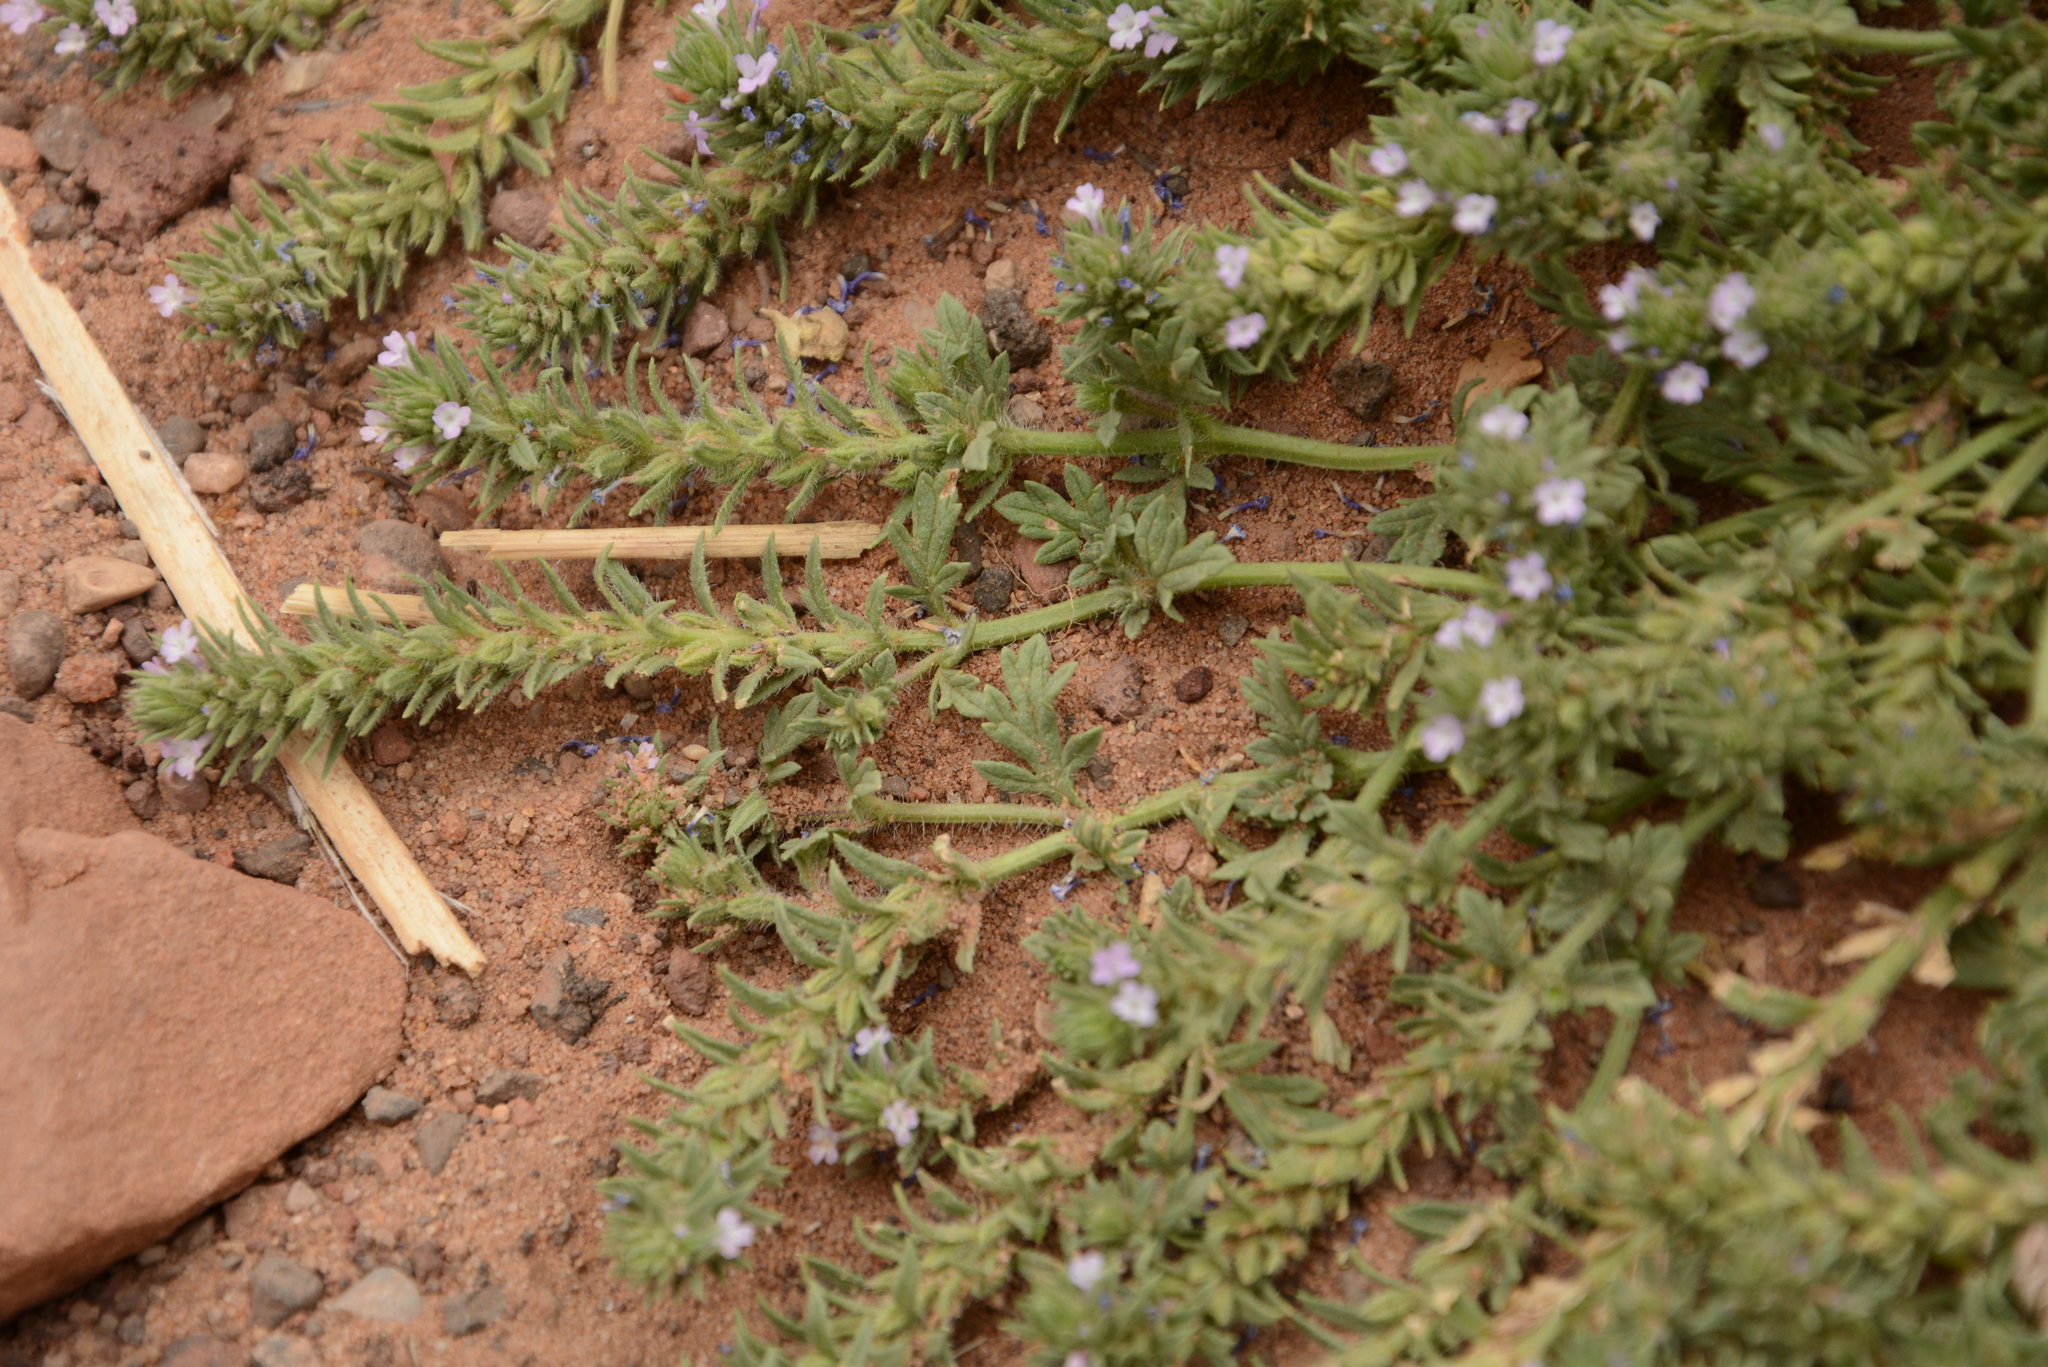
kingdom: Plantae
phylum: Tracheophyta
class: Magnoliopsida
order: Lamiales
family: Verbenaceae
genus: Verbena
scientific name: Verbena bracteata
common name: Bracted vervain
